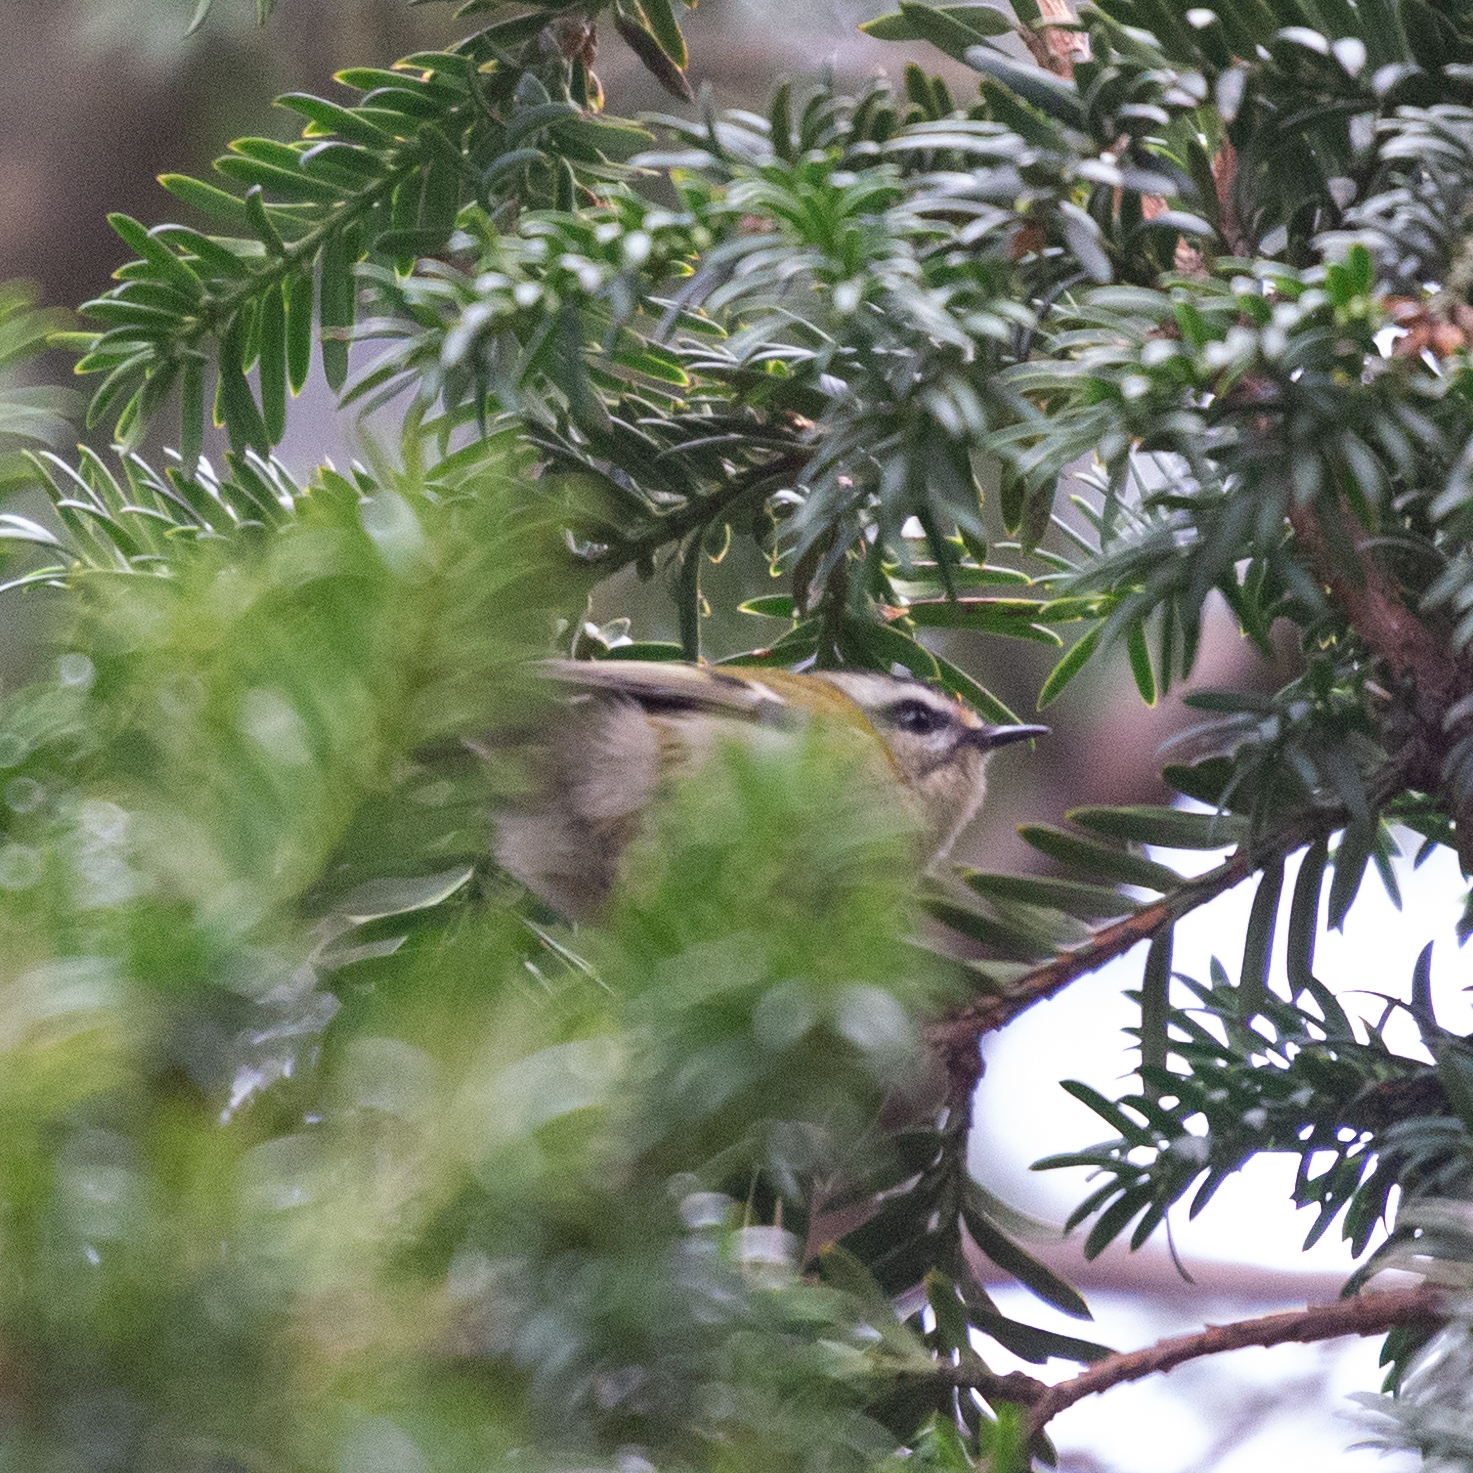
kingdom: Animalia
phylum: Chordata
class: Aves
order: Passeriformes
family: Regulidae
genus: Regulus
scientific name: Regulus ignicapilla
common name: Firecrest
